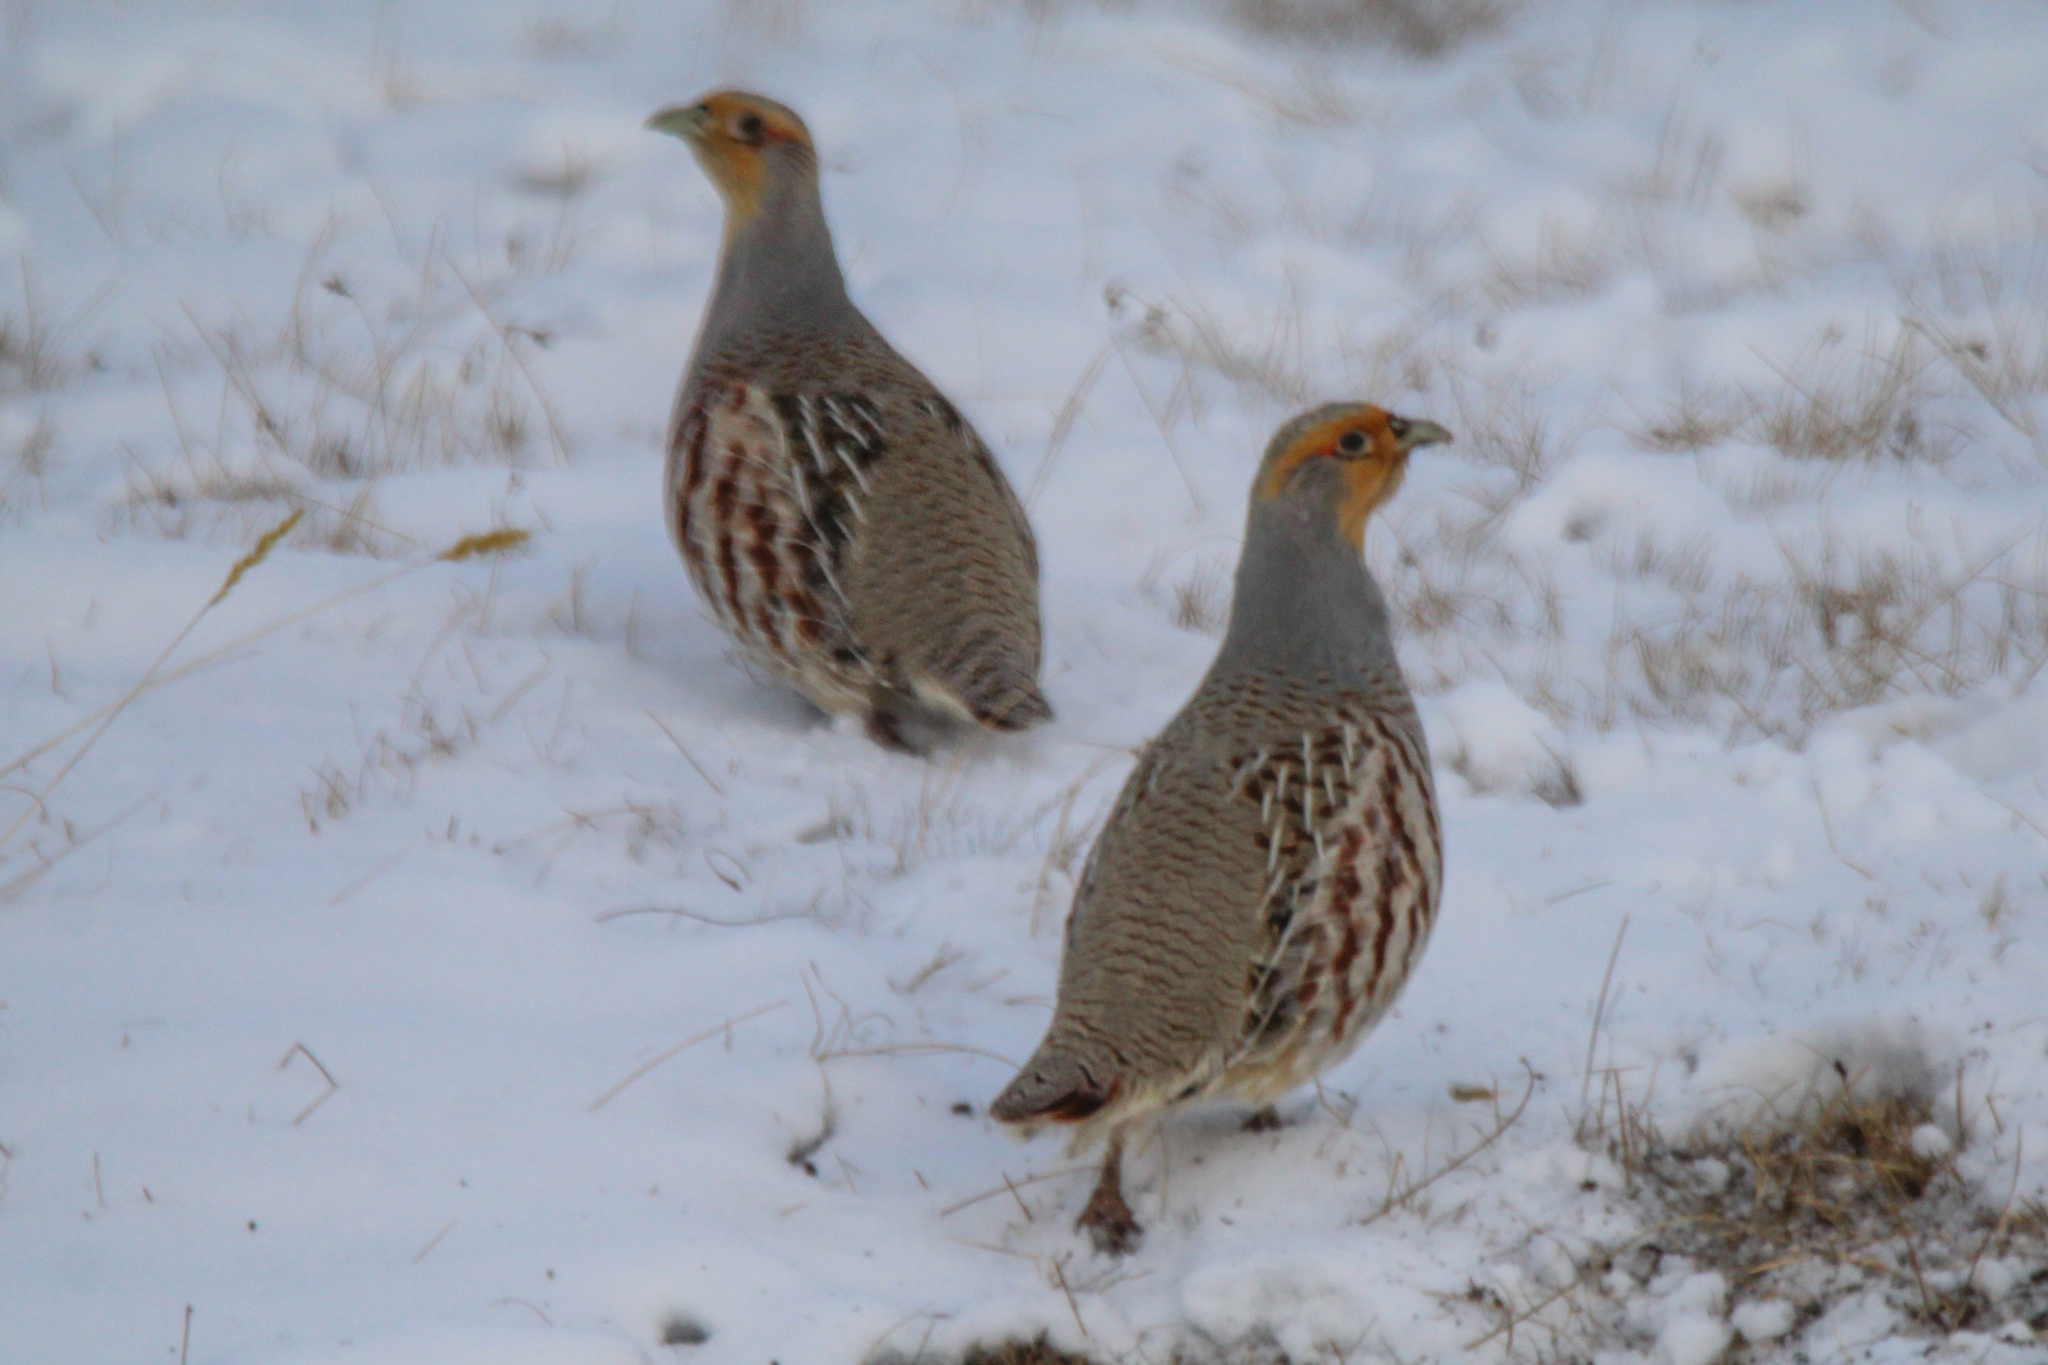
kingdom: Animalia
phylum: Chordata
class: Aves
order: Galliformes
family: Phasianidae
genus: Perdix
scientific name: Perdix dauurica
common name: Daurian partridge
